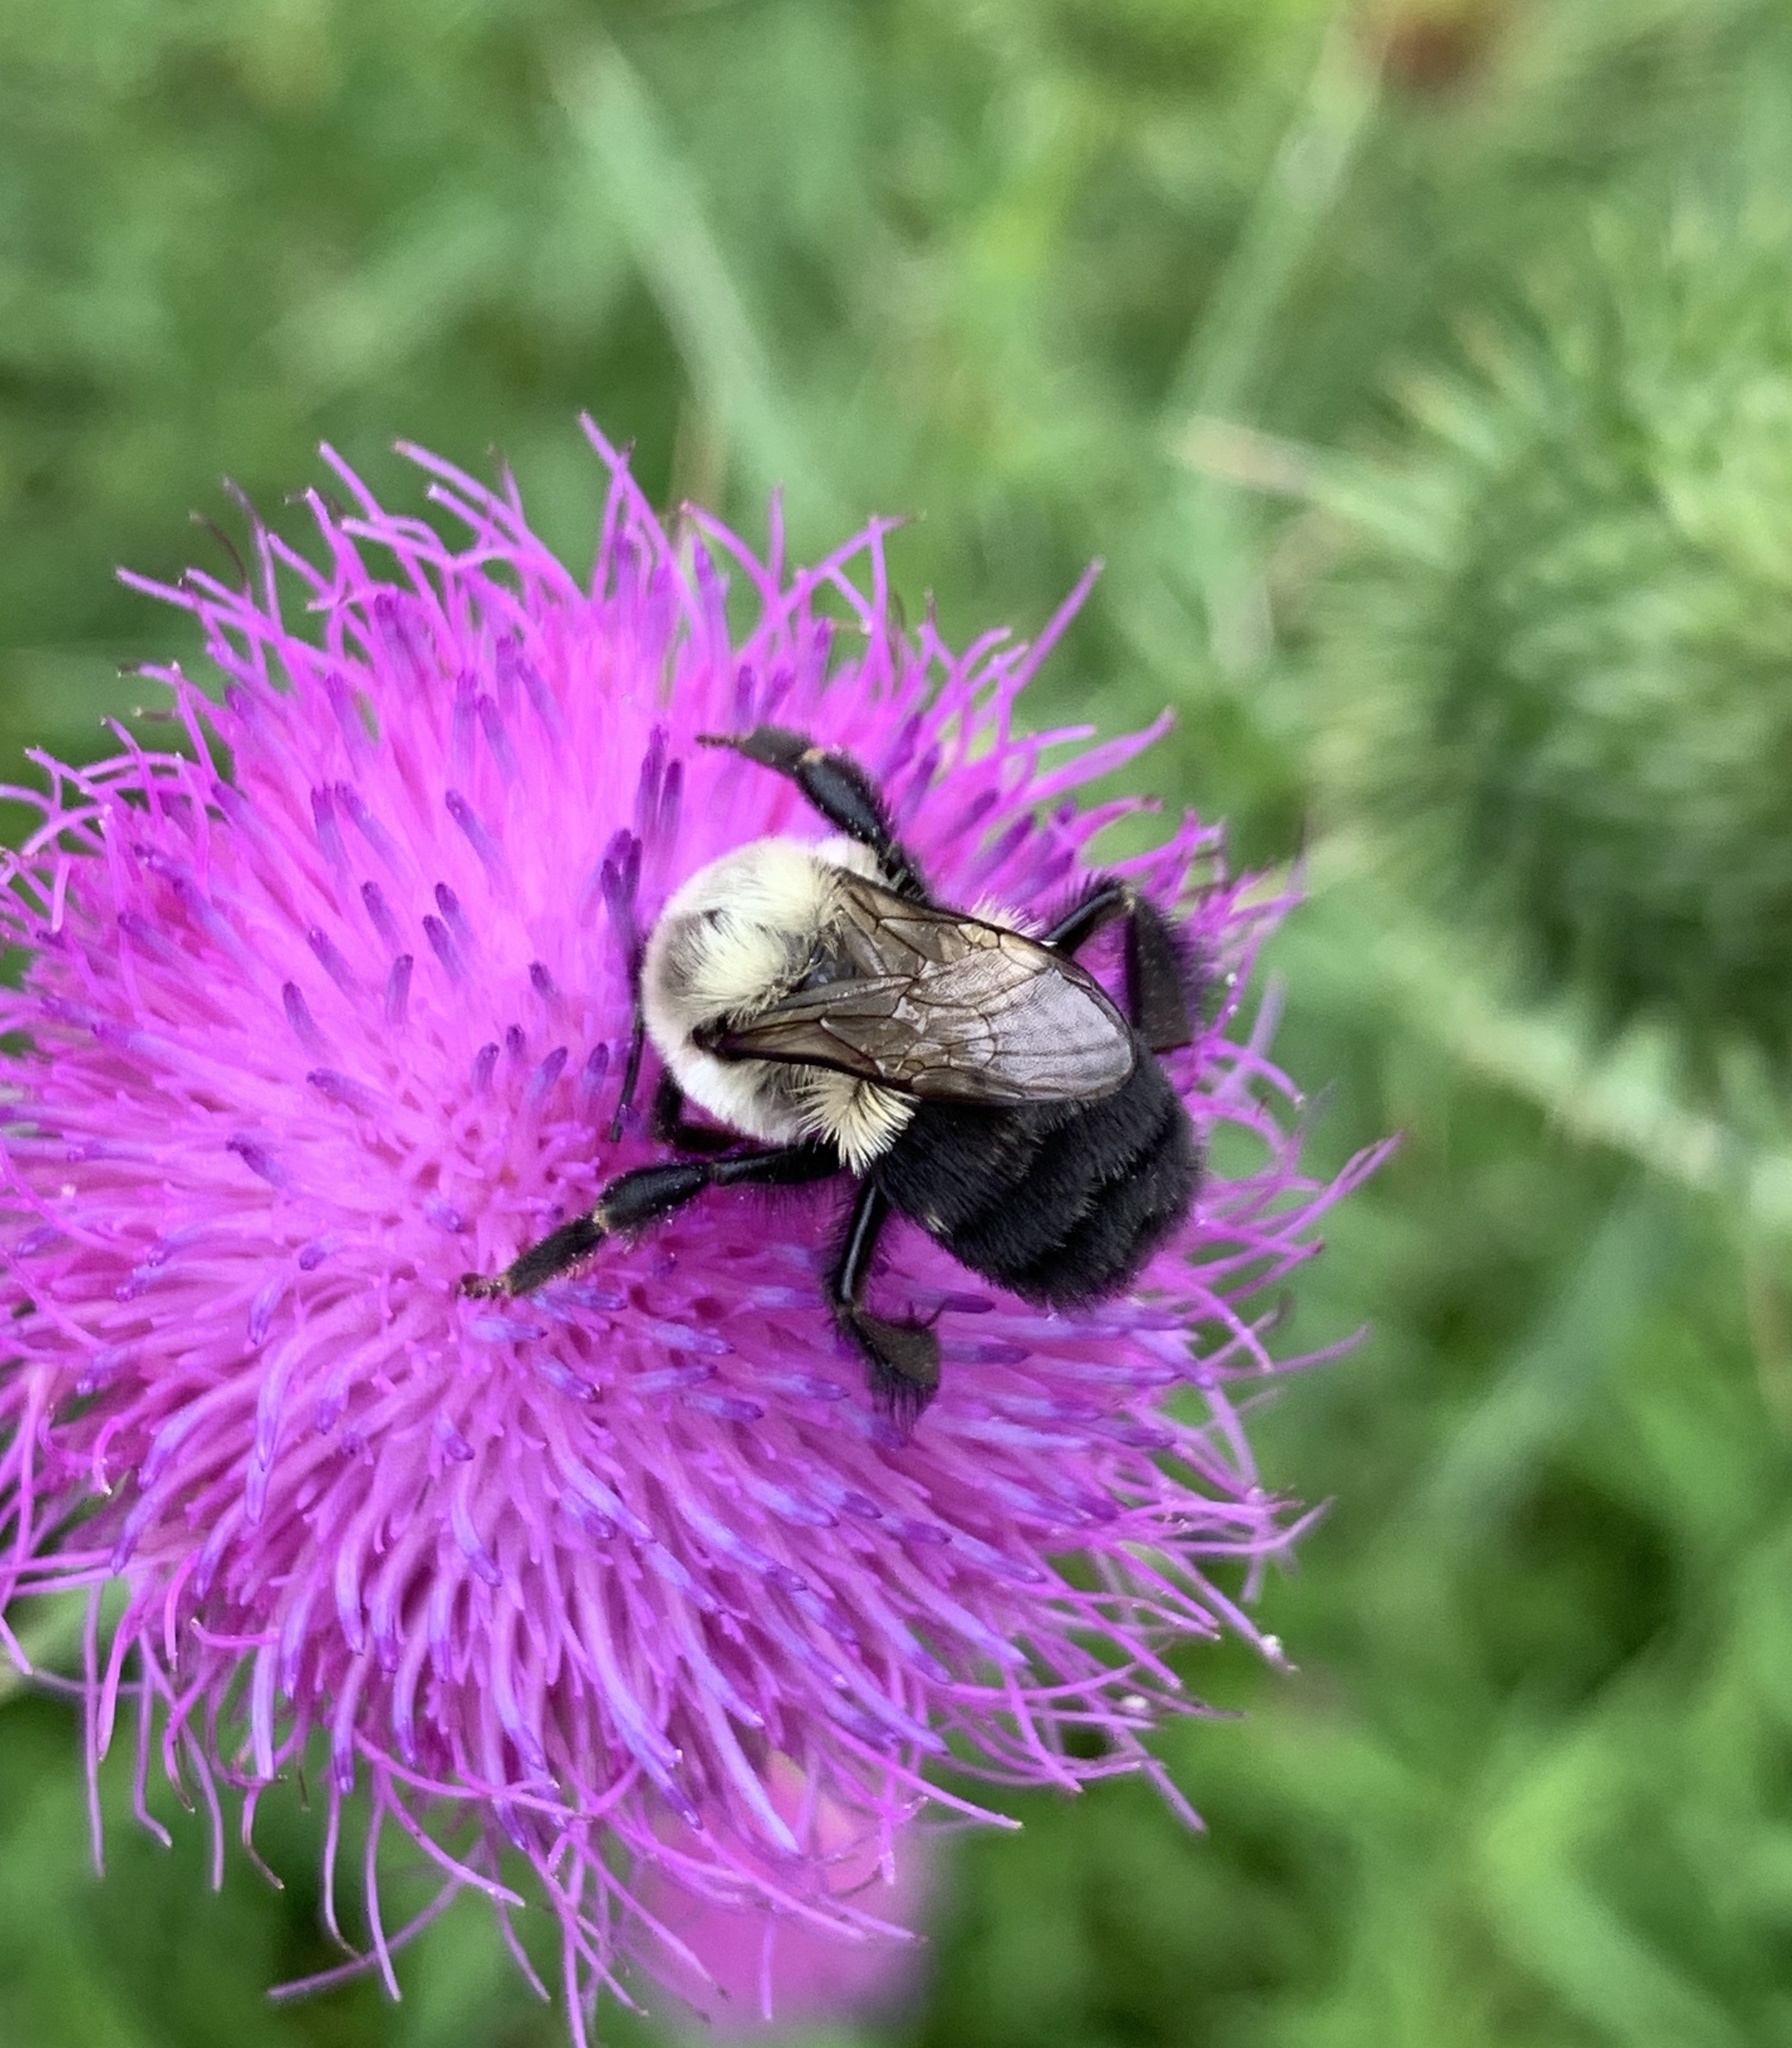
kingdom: Animalia
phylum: Arthropoda
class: Insecta
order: Hymenoptera
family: Apidae
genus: Bombus
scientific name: Bombus impatiens
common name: Common eastern bumble bee
